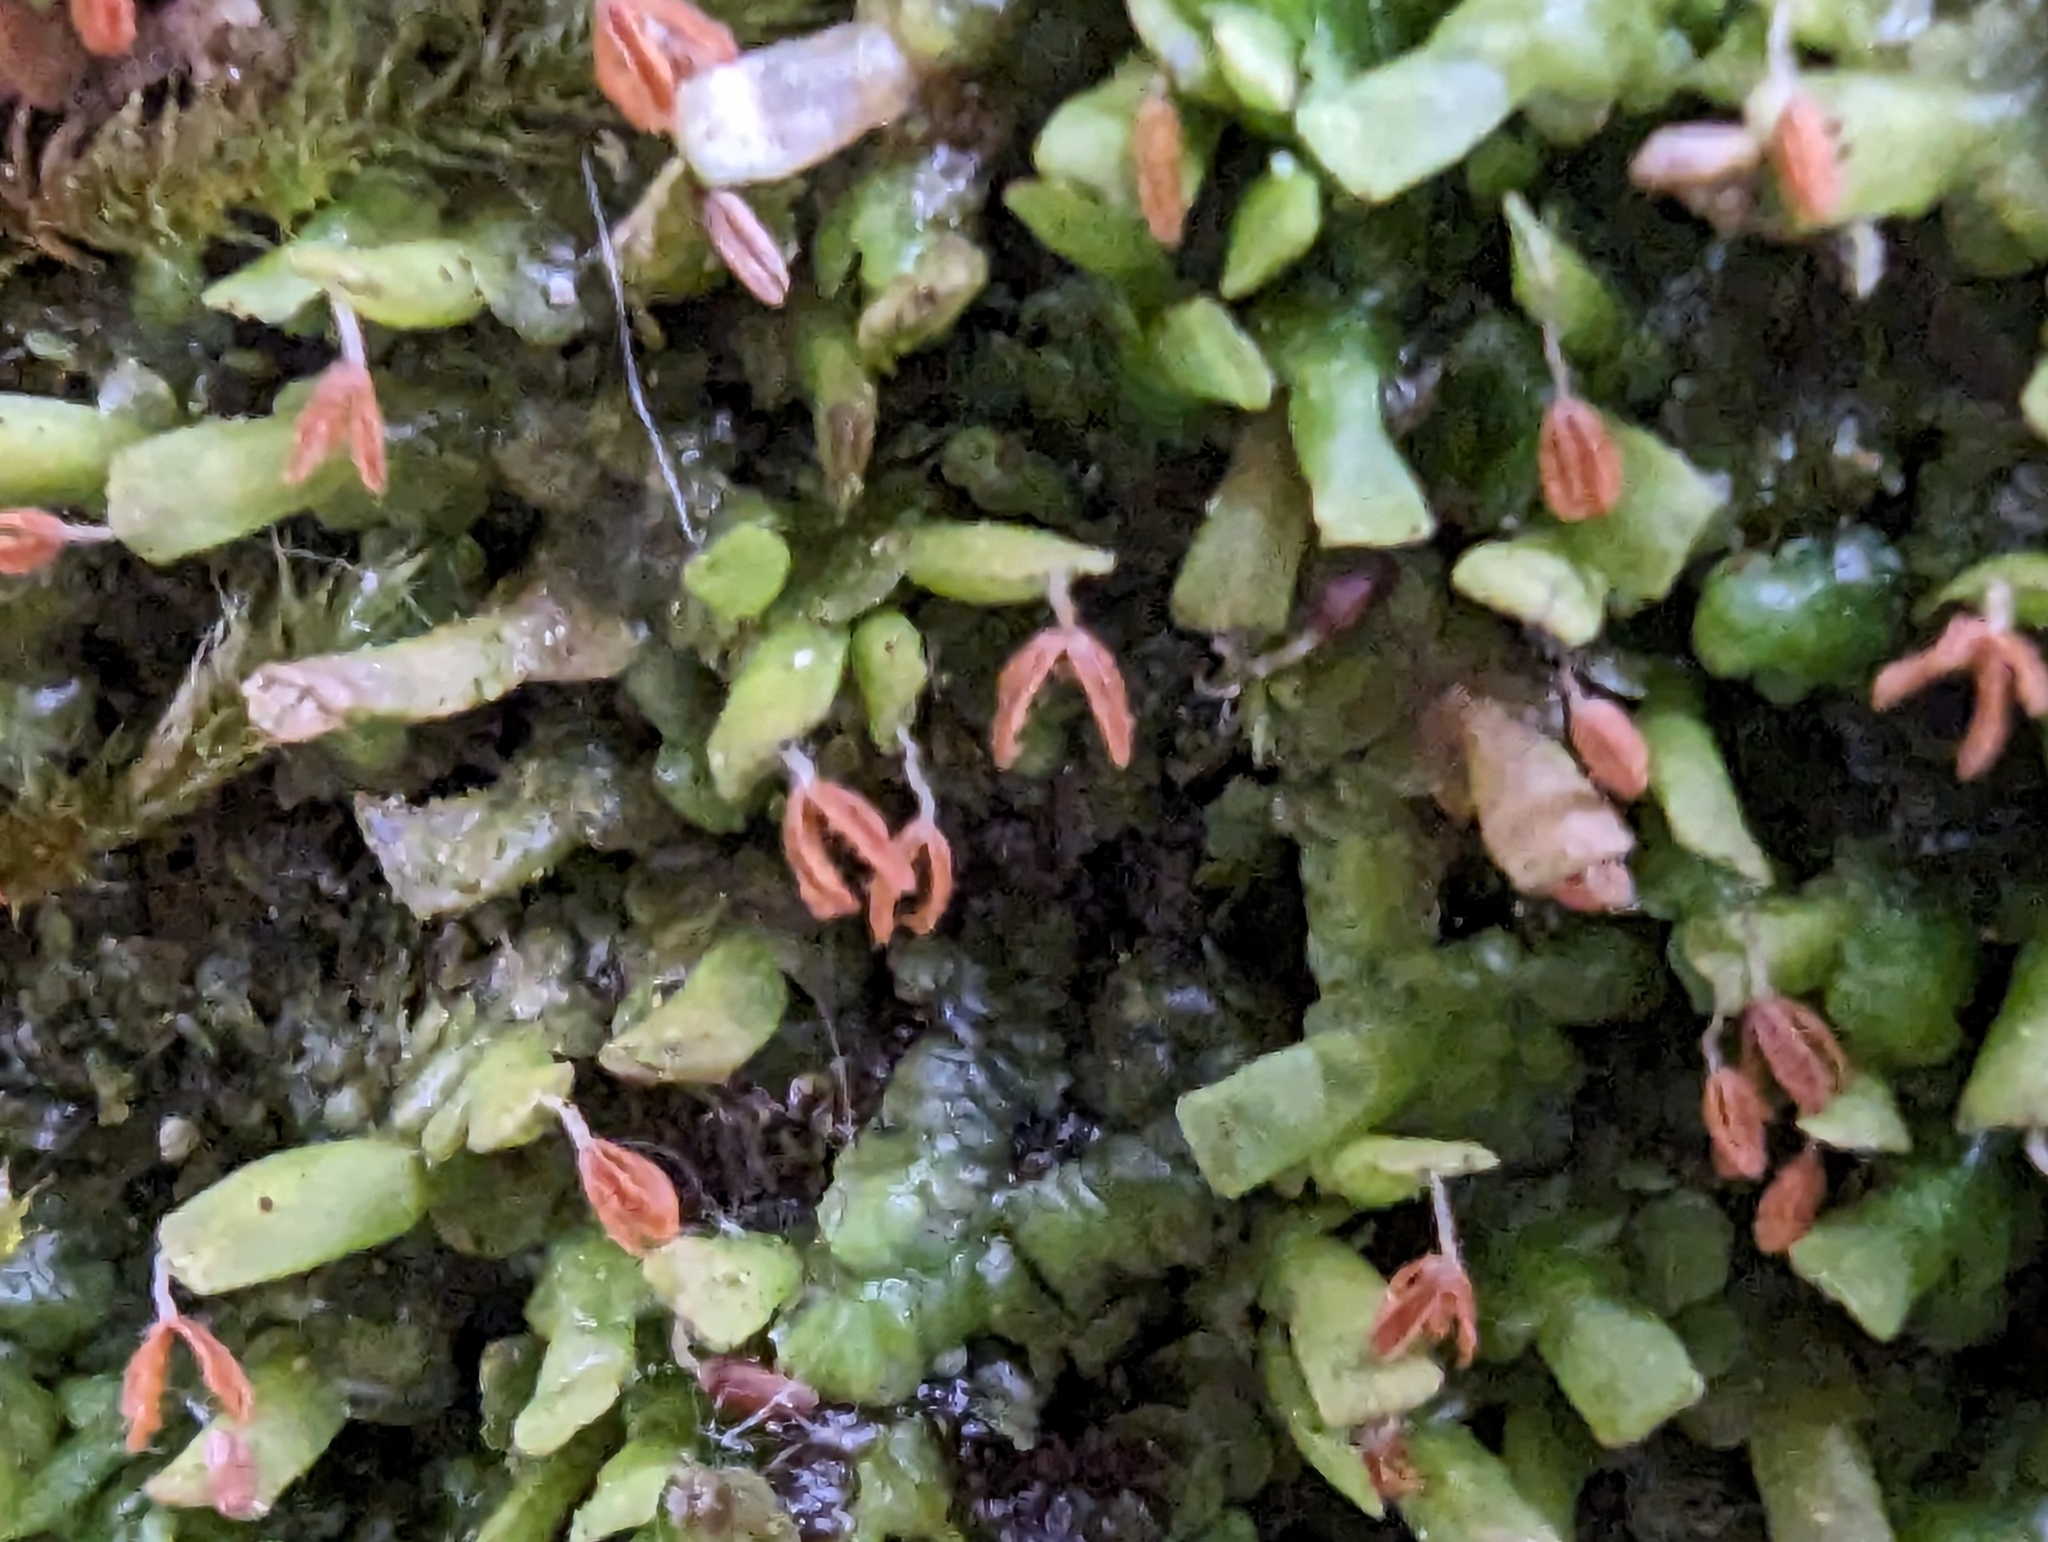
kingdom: Plantae
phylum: Marchantiophyta
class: Jungermanniopsida
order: Porellales
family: Radulaceae
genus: Radula
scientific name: Radula complanata
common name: Flat-leaved scalewort
